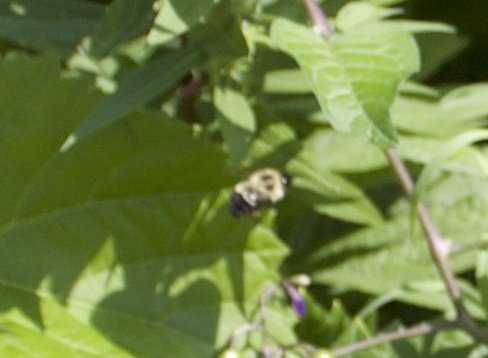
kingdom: Animalia
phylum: Arthropoda
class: Insecta
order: Hymenoptera
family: Apidae
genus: Pyrobombus
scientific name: Pyrobombus
